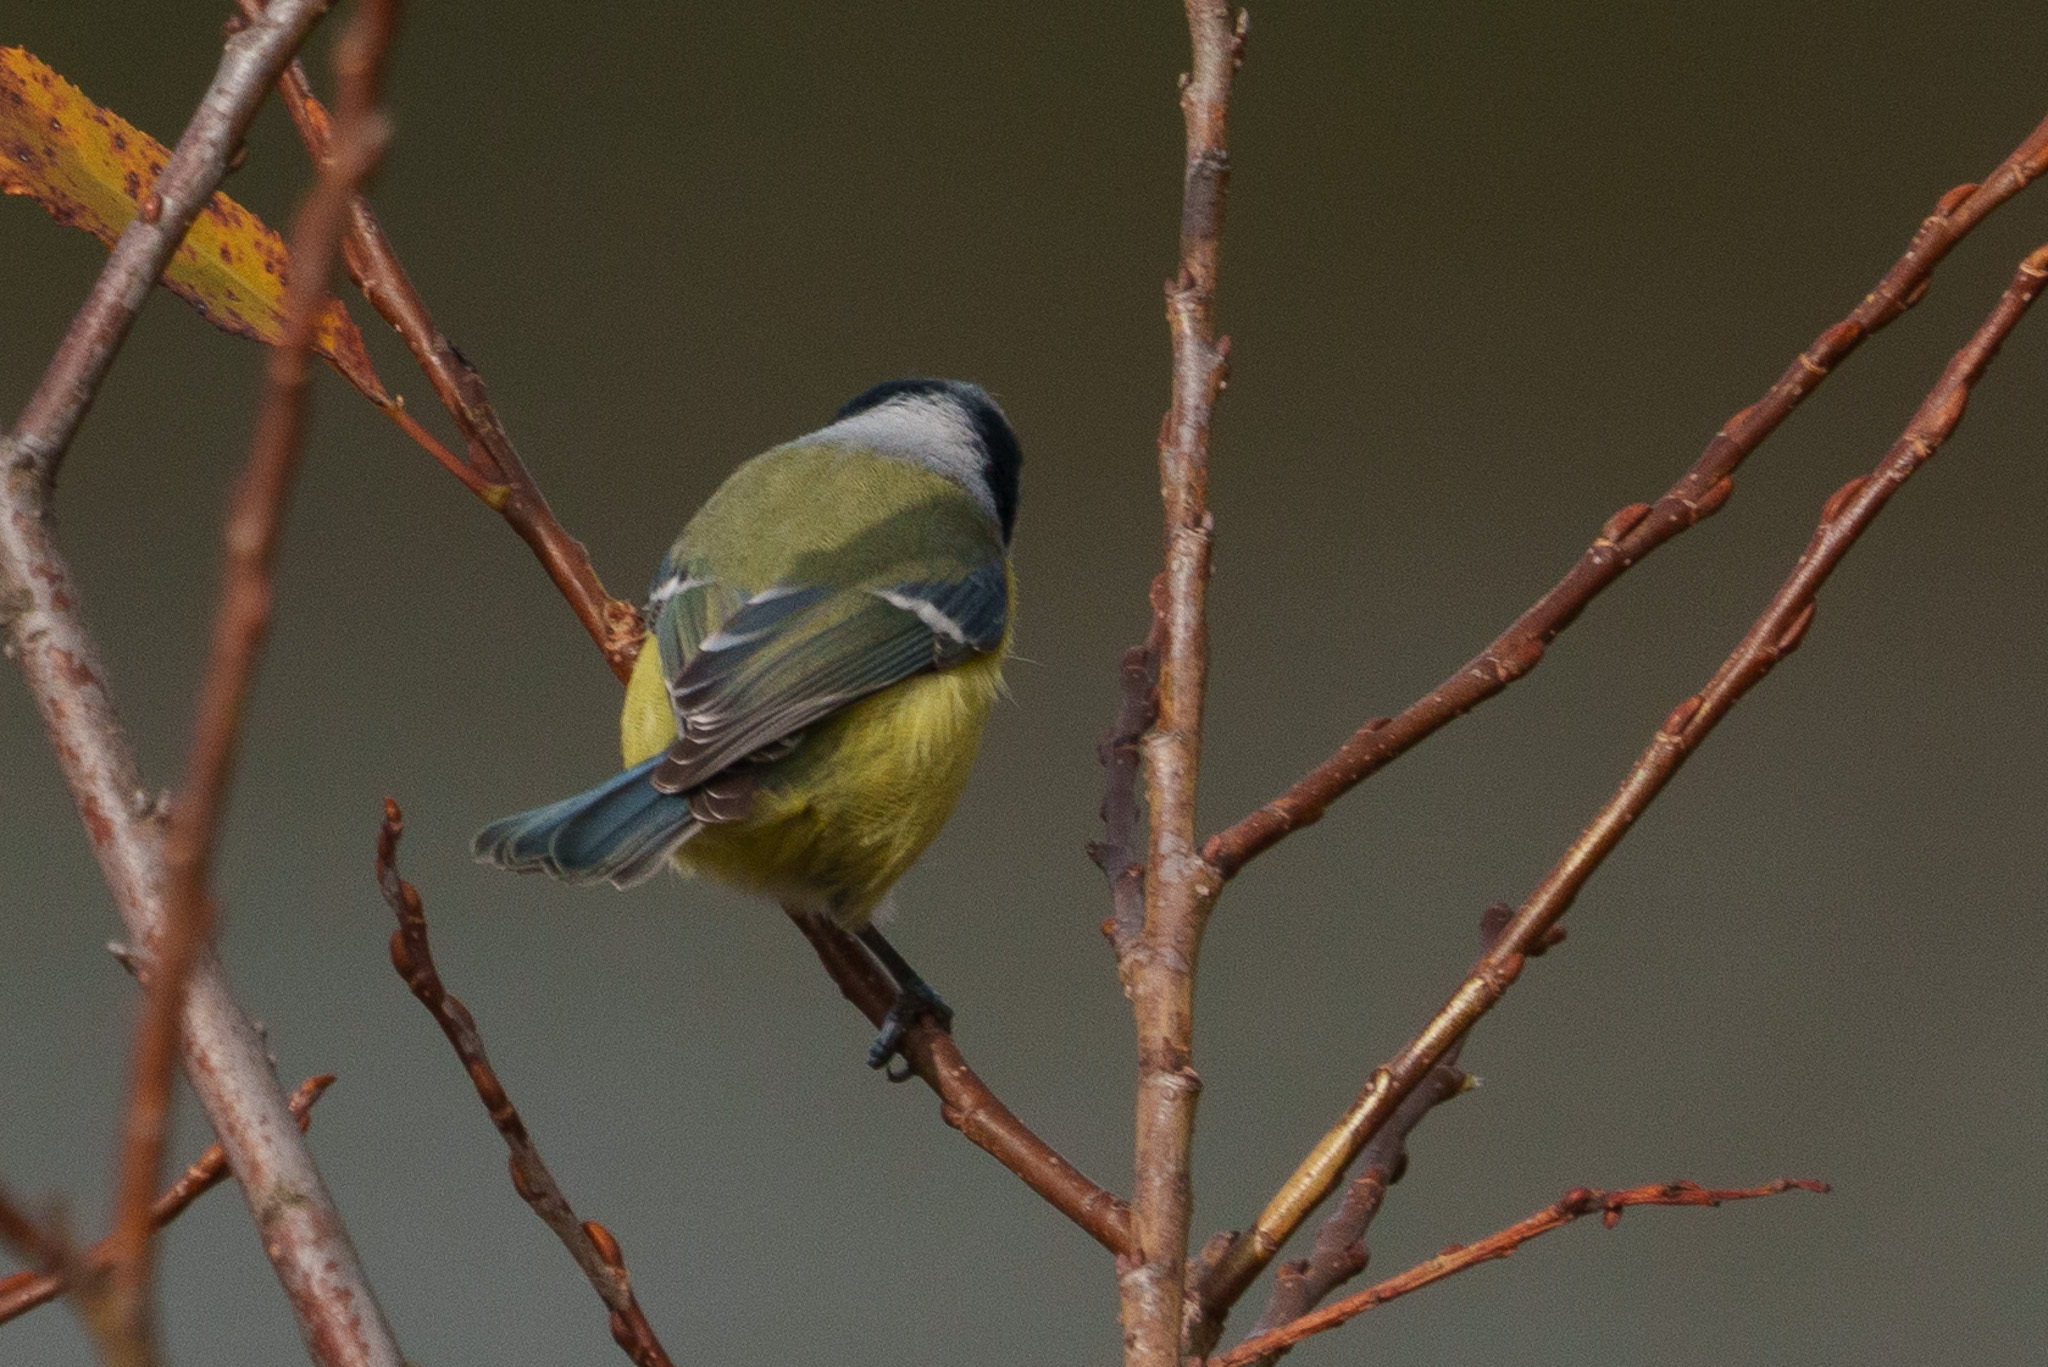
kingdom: Animalia
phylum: Chordata
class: Aves
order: Passeriformes
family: Paridae
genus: Cyanistes
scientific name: Cyanistes caeruleus
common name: Eurasian blue tit
